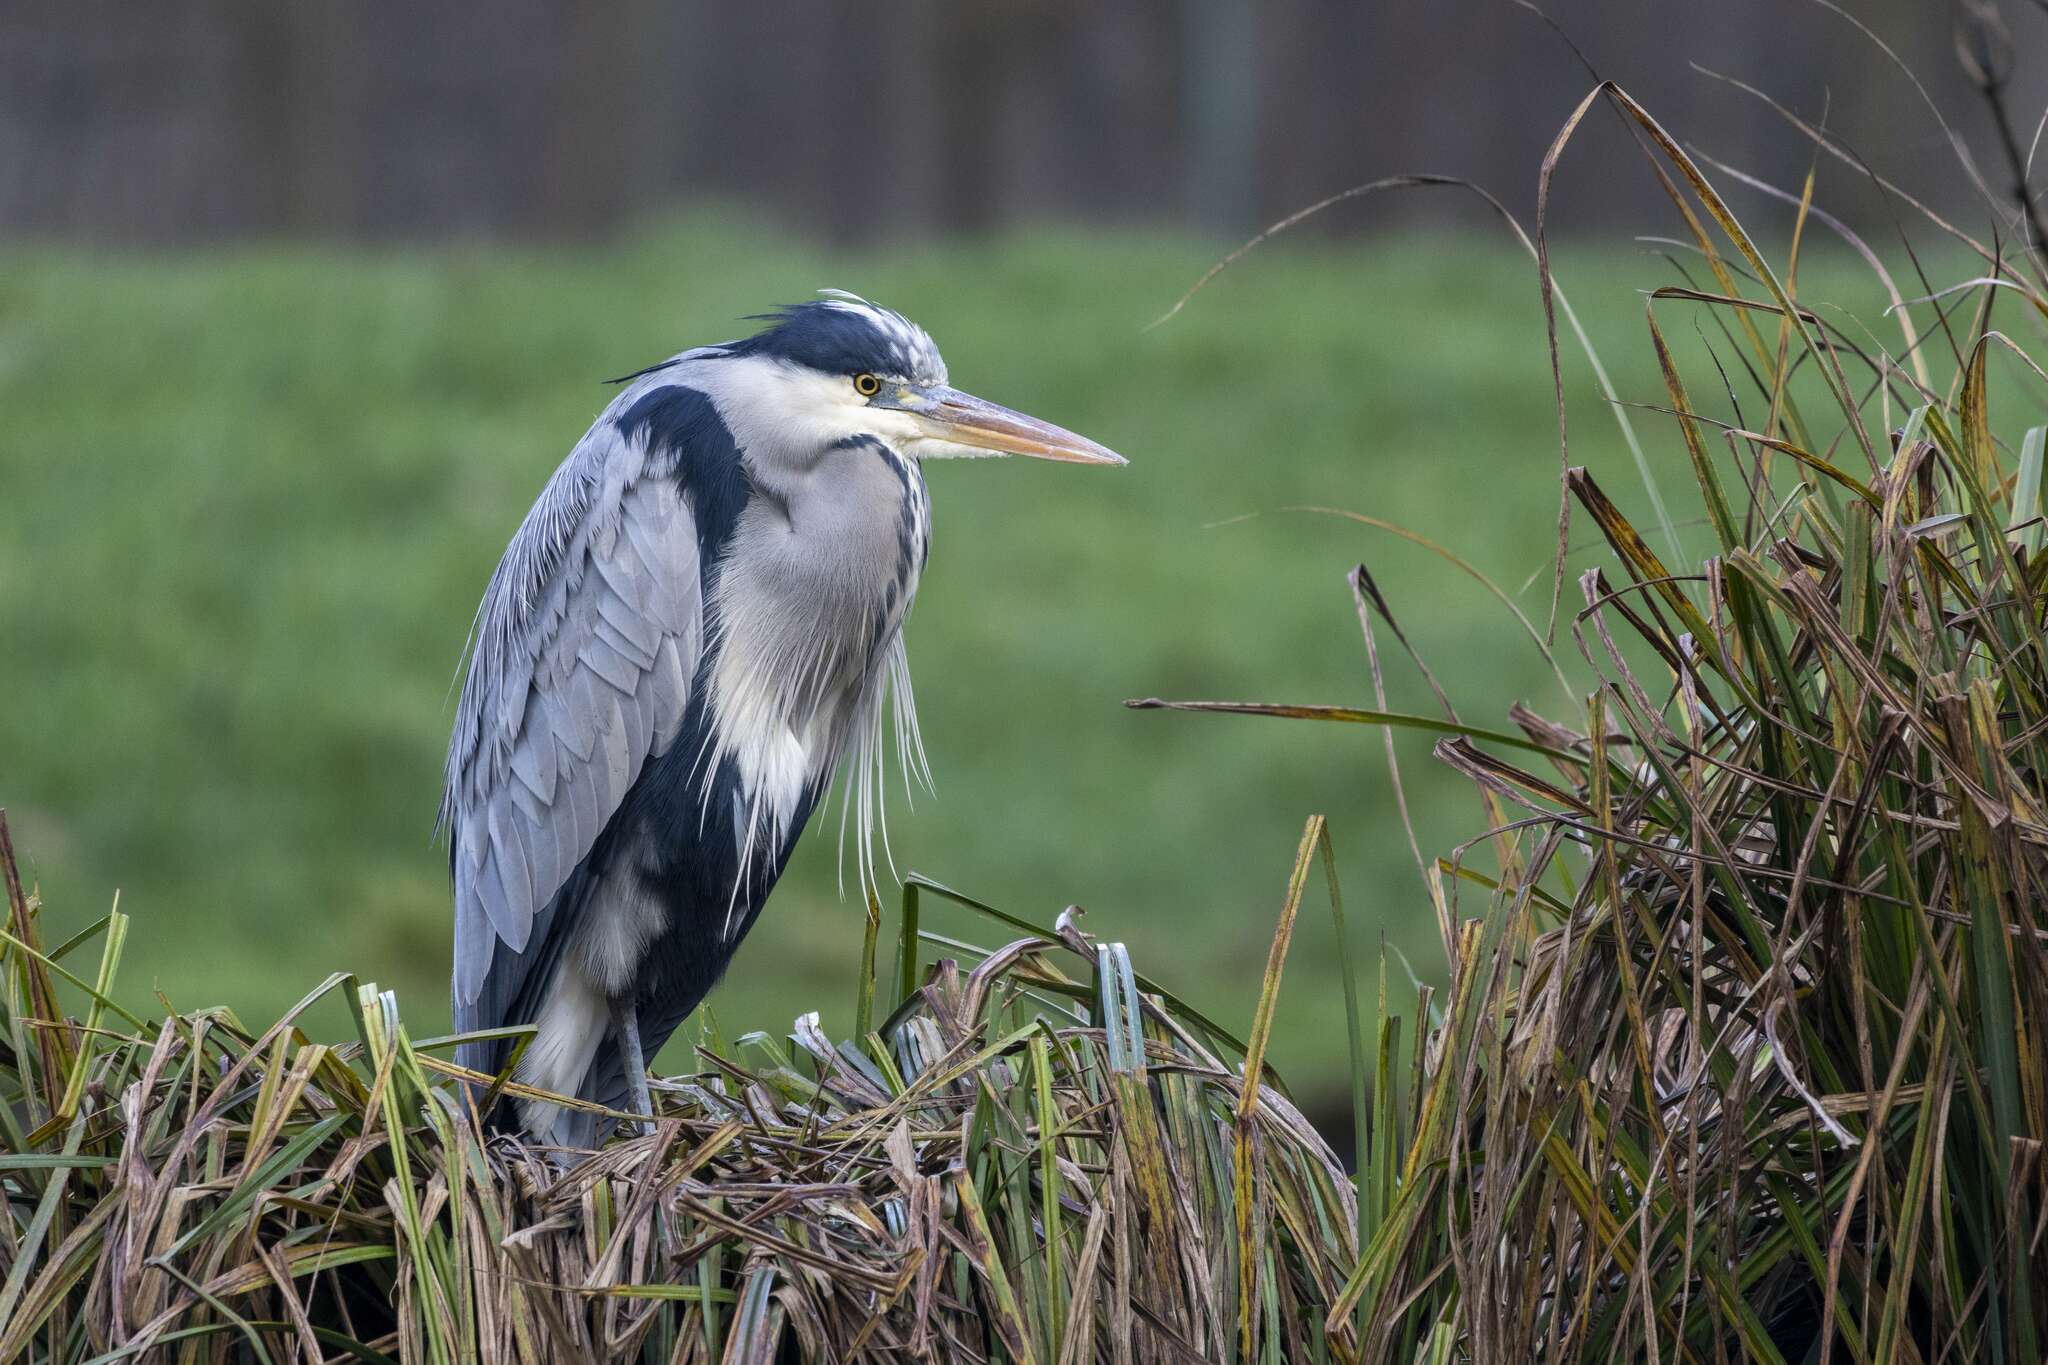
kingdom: Animalia
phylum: Chordata
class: Aves
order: Pelecaniformes
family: Ardeidae
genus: Ardea
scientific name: Ardea cinerea
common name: Grey heron
